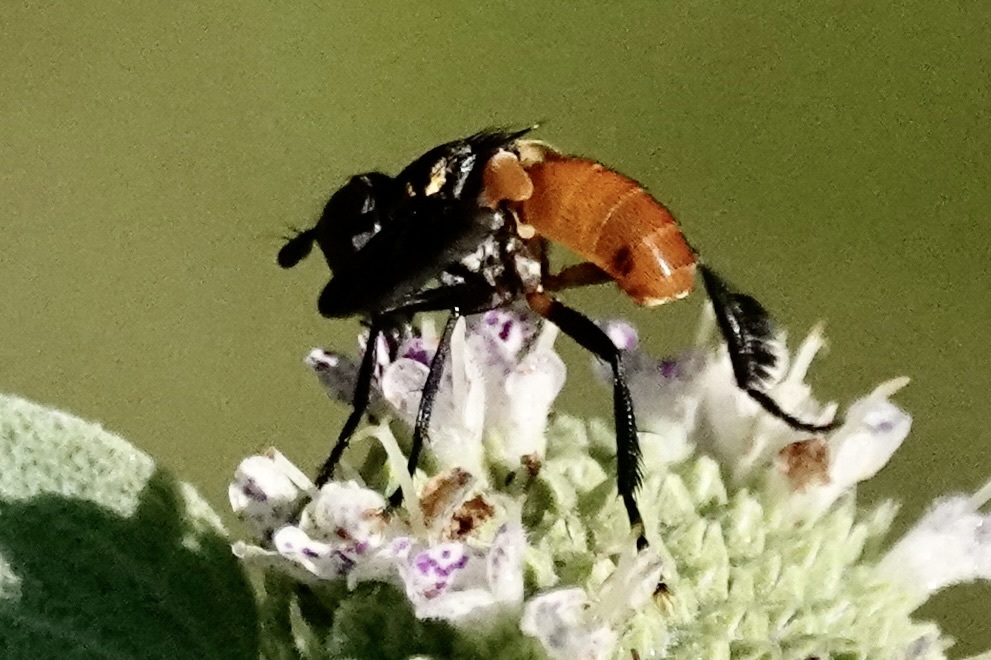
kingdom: Animalia
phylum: Arthropoda
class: Insecta
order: Diptera
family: Tachinidae
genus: Trichopoda
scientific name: Trichopoda pennipes
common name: Tachinid fly
